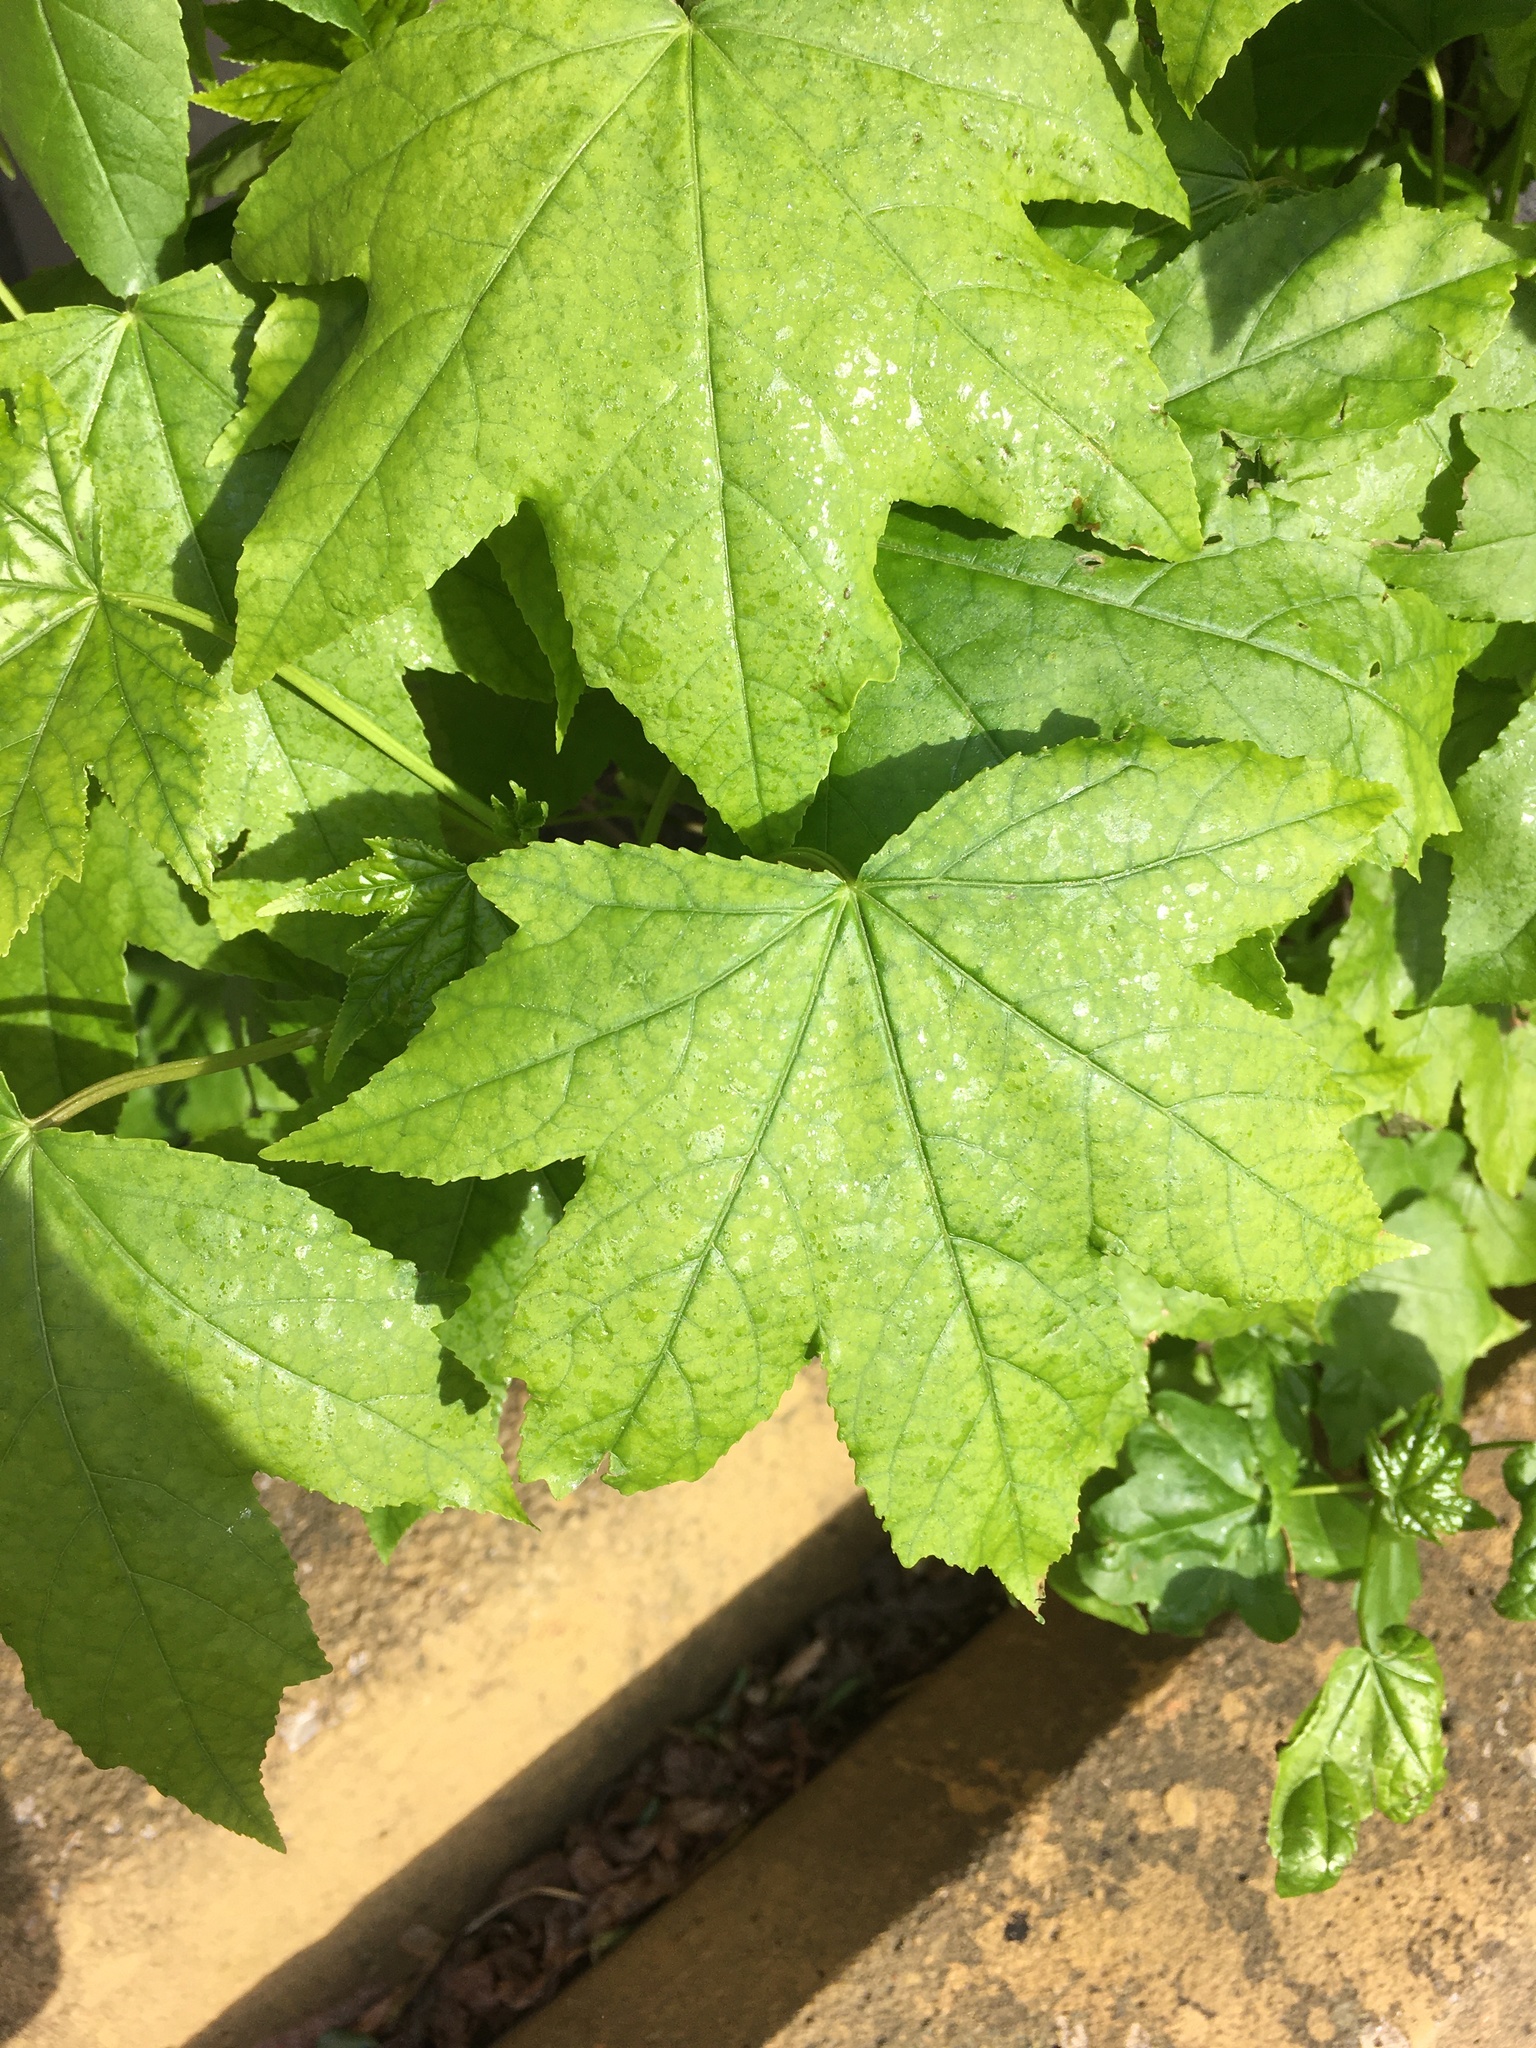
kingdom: Plantae
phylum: Tracheophyta
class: Magnoliopsida
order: Saxifragales
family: Altingiaceae
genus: Liquidambar
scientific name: Liquidambar styraciflua
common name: Sweet gum
